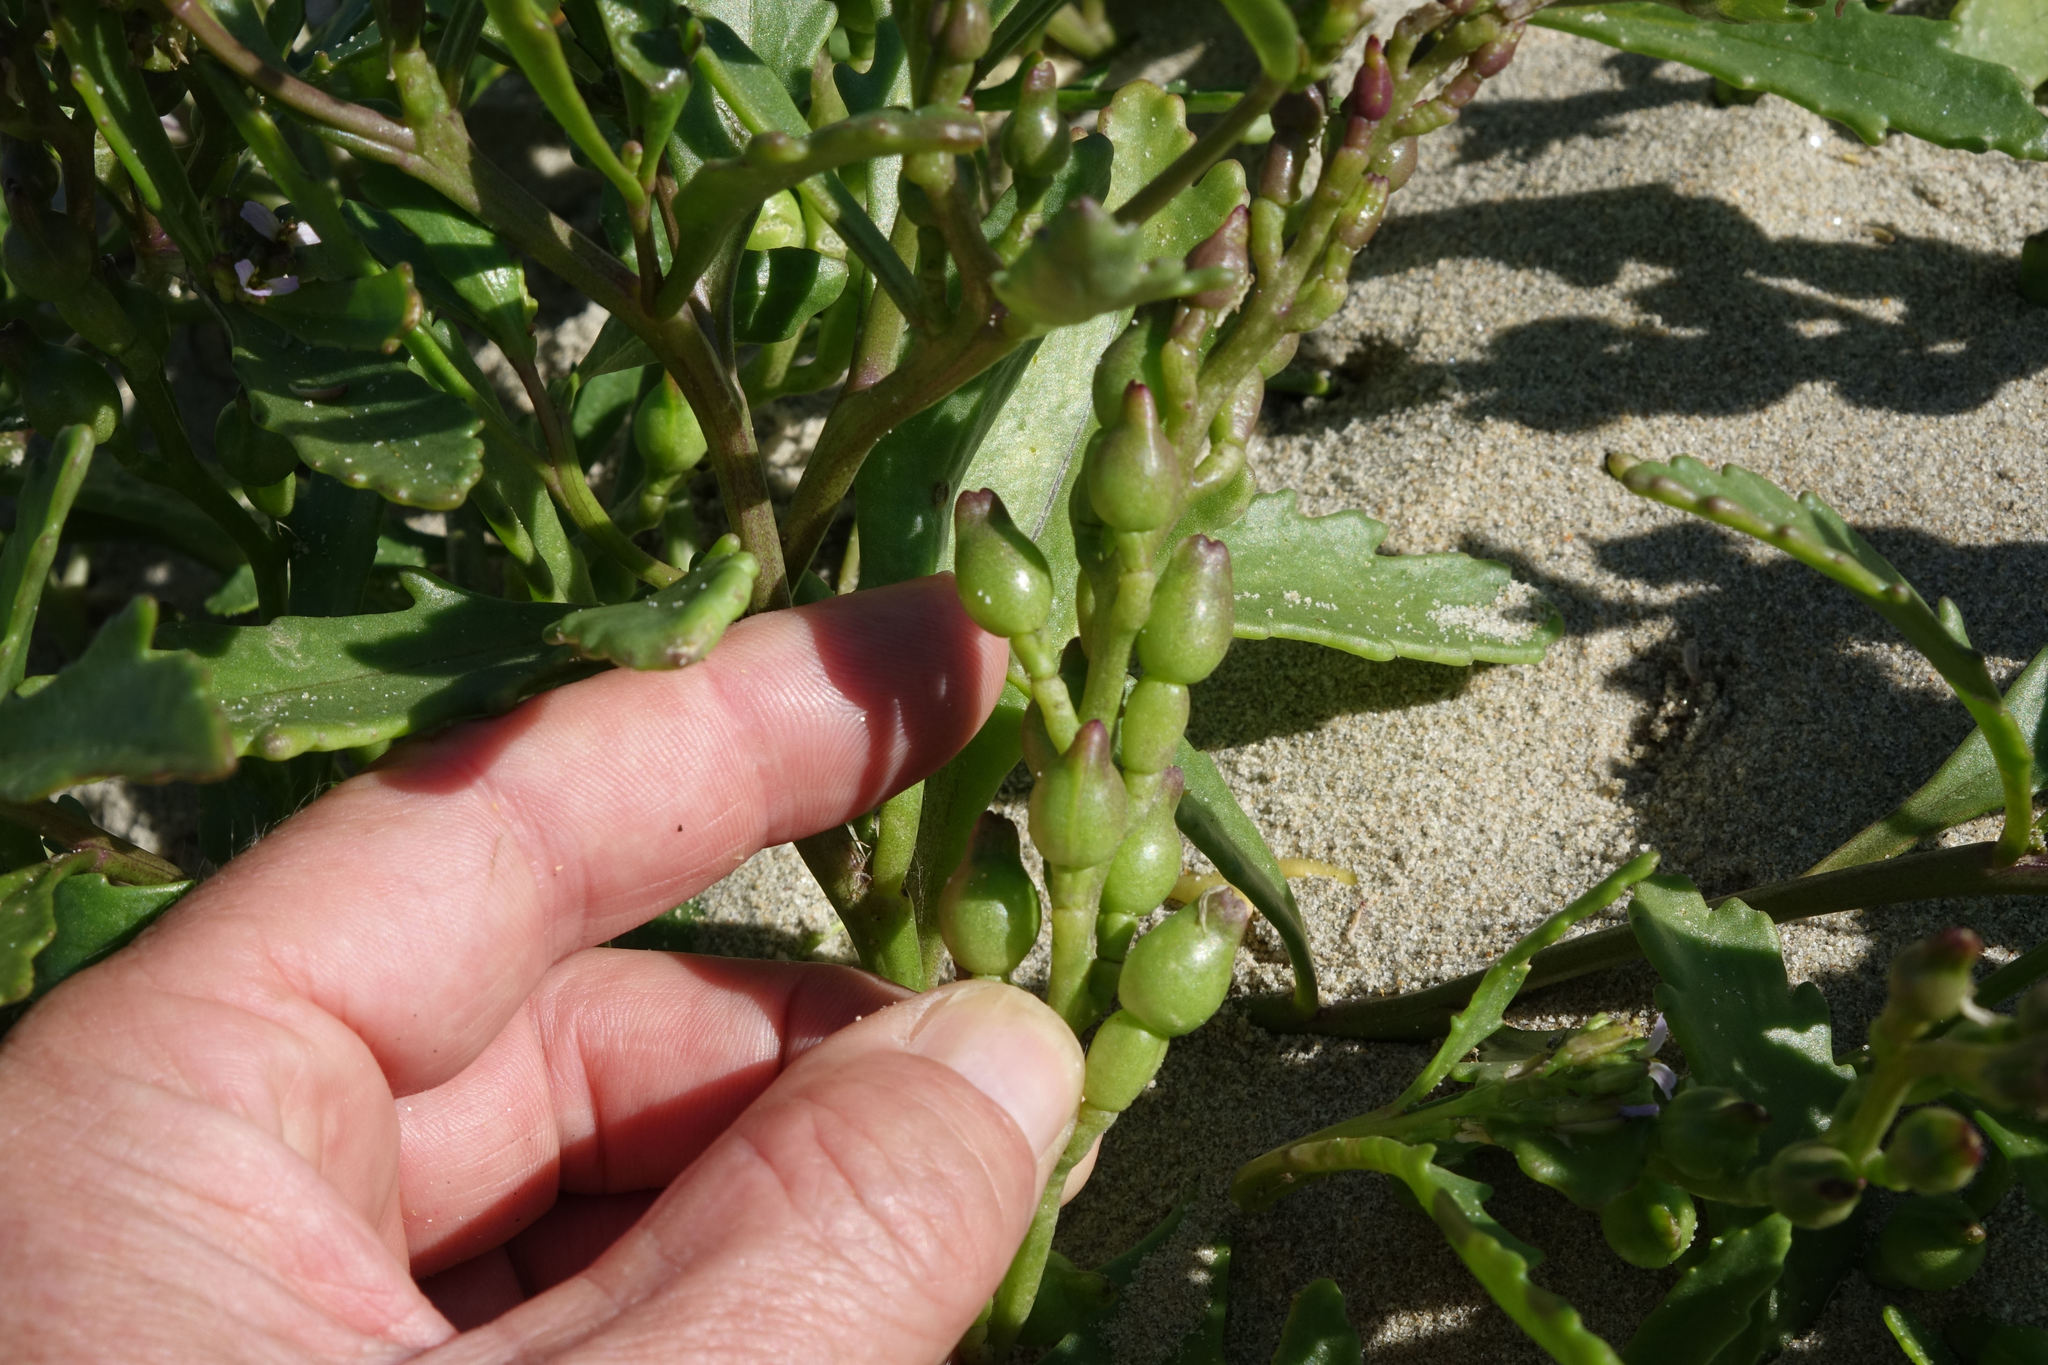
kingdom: Plantae
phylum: Tracheophyta
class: Magnoliopsida
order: Brassicales
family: Brassicaceae
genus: Cakile
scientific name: Cakile edentula
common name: American sea rocket
